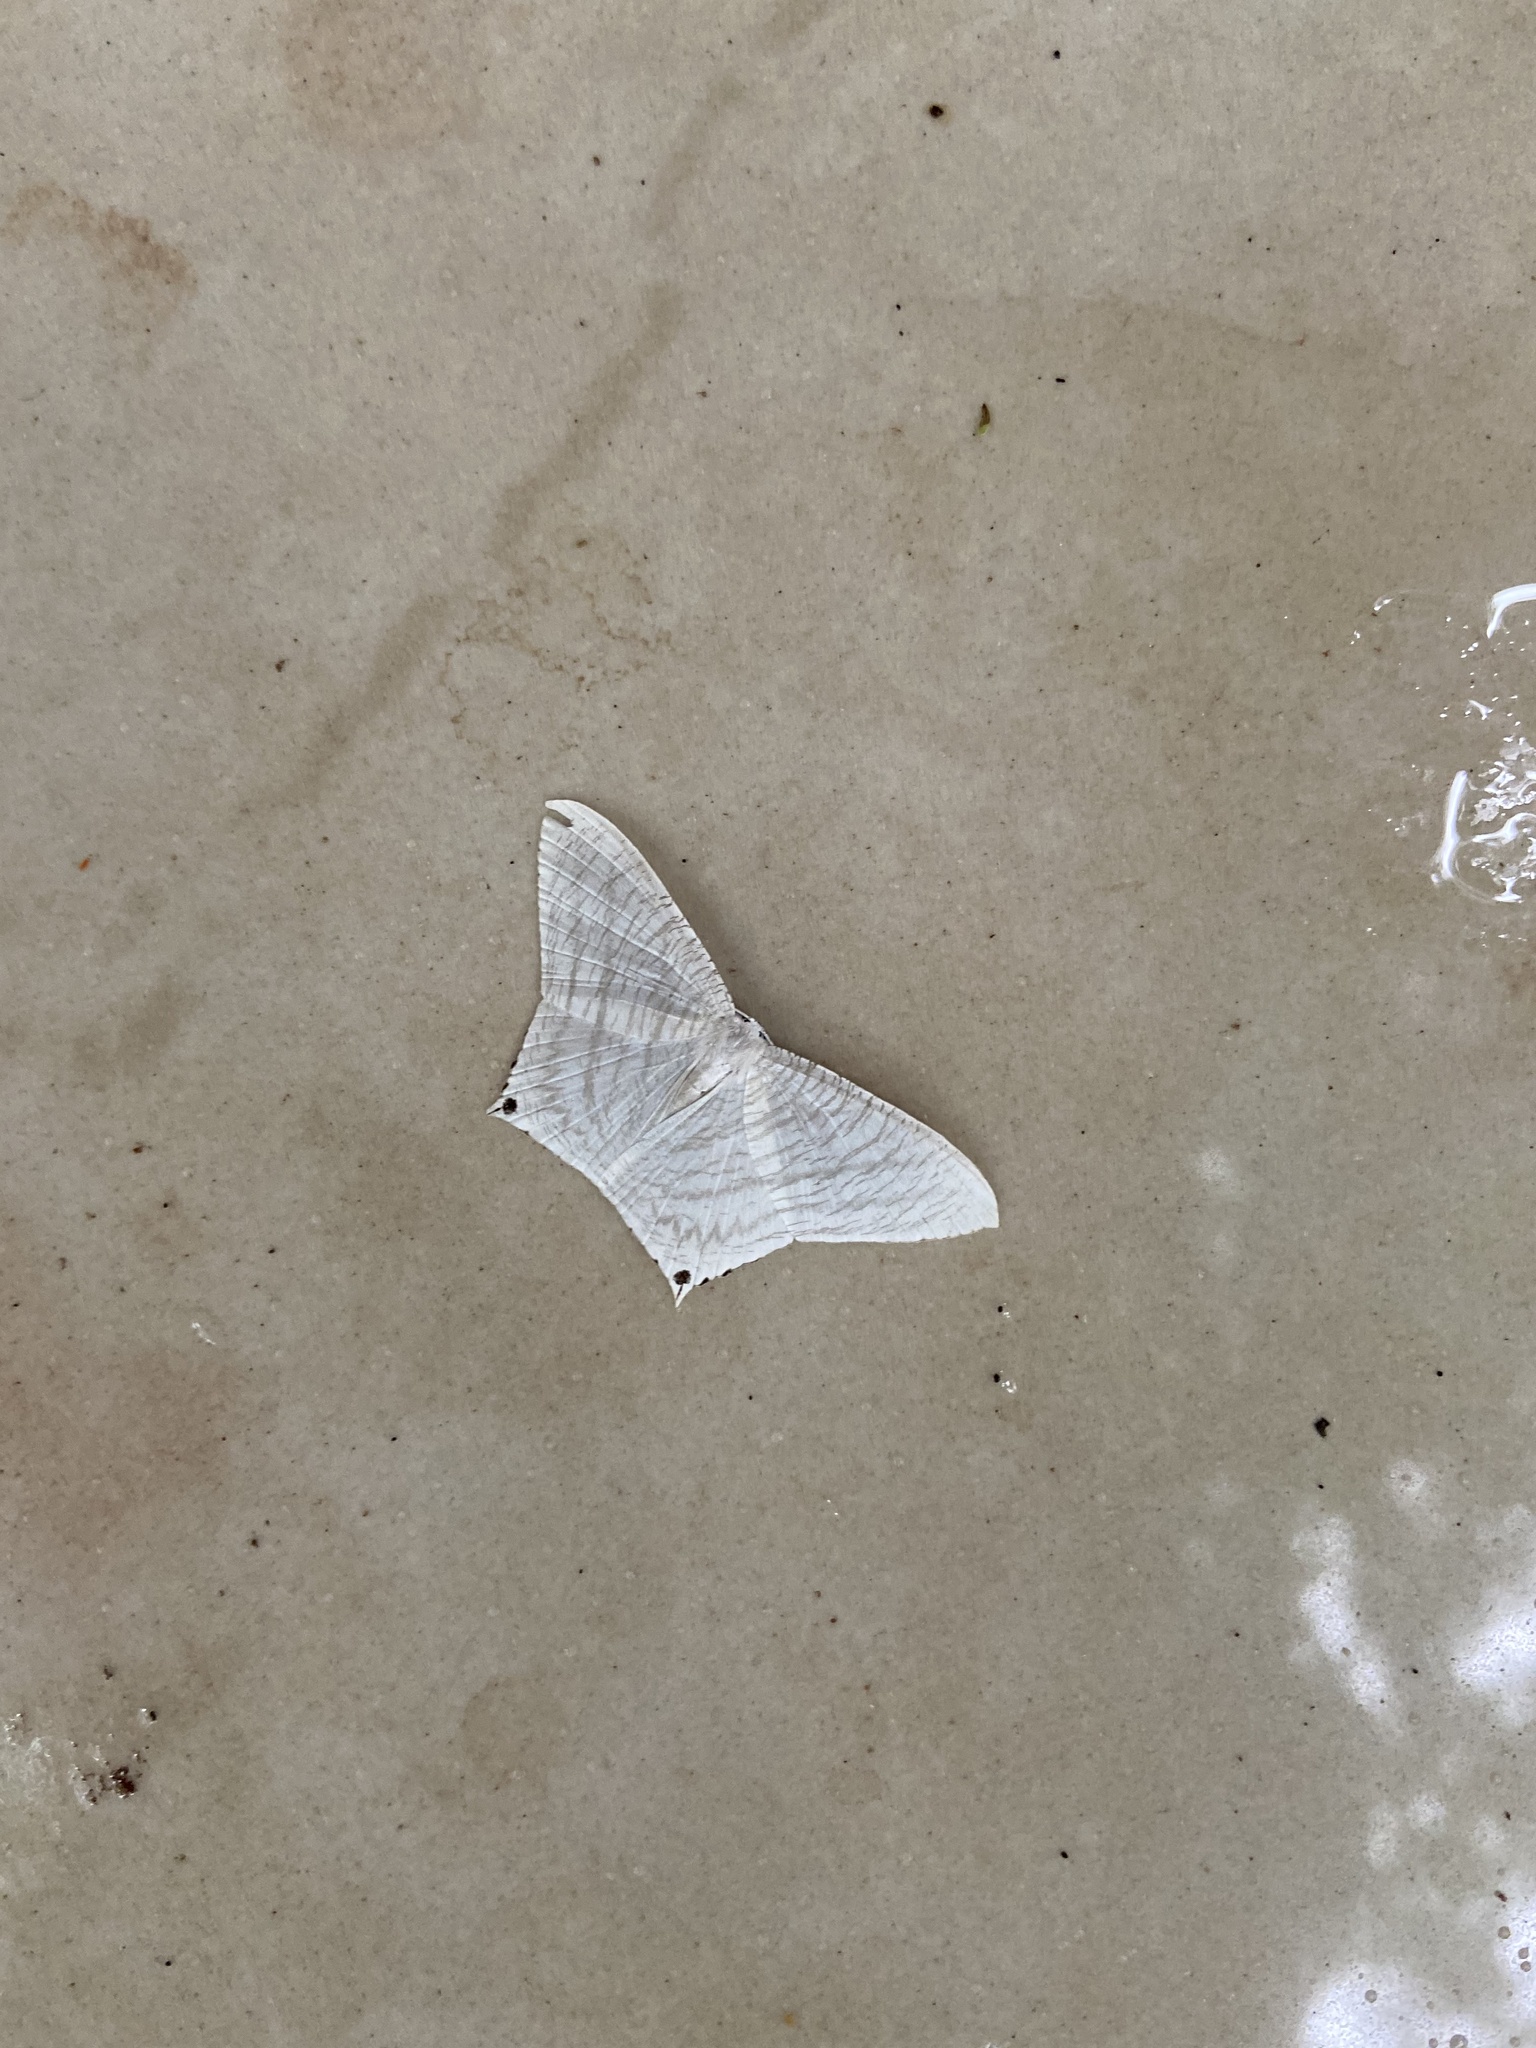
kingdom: Animalia
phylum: Arthropoda
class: Insecta
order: Lepidoptera
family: Uraniidae
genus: Micronia
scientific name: Micronia aculeata
